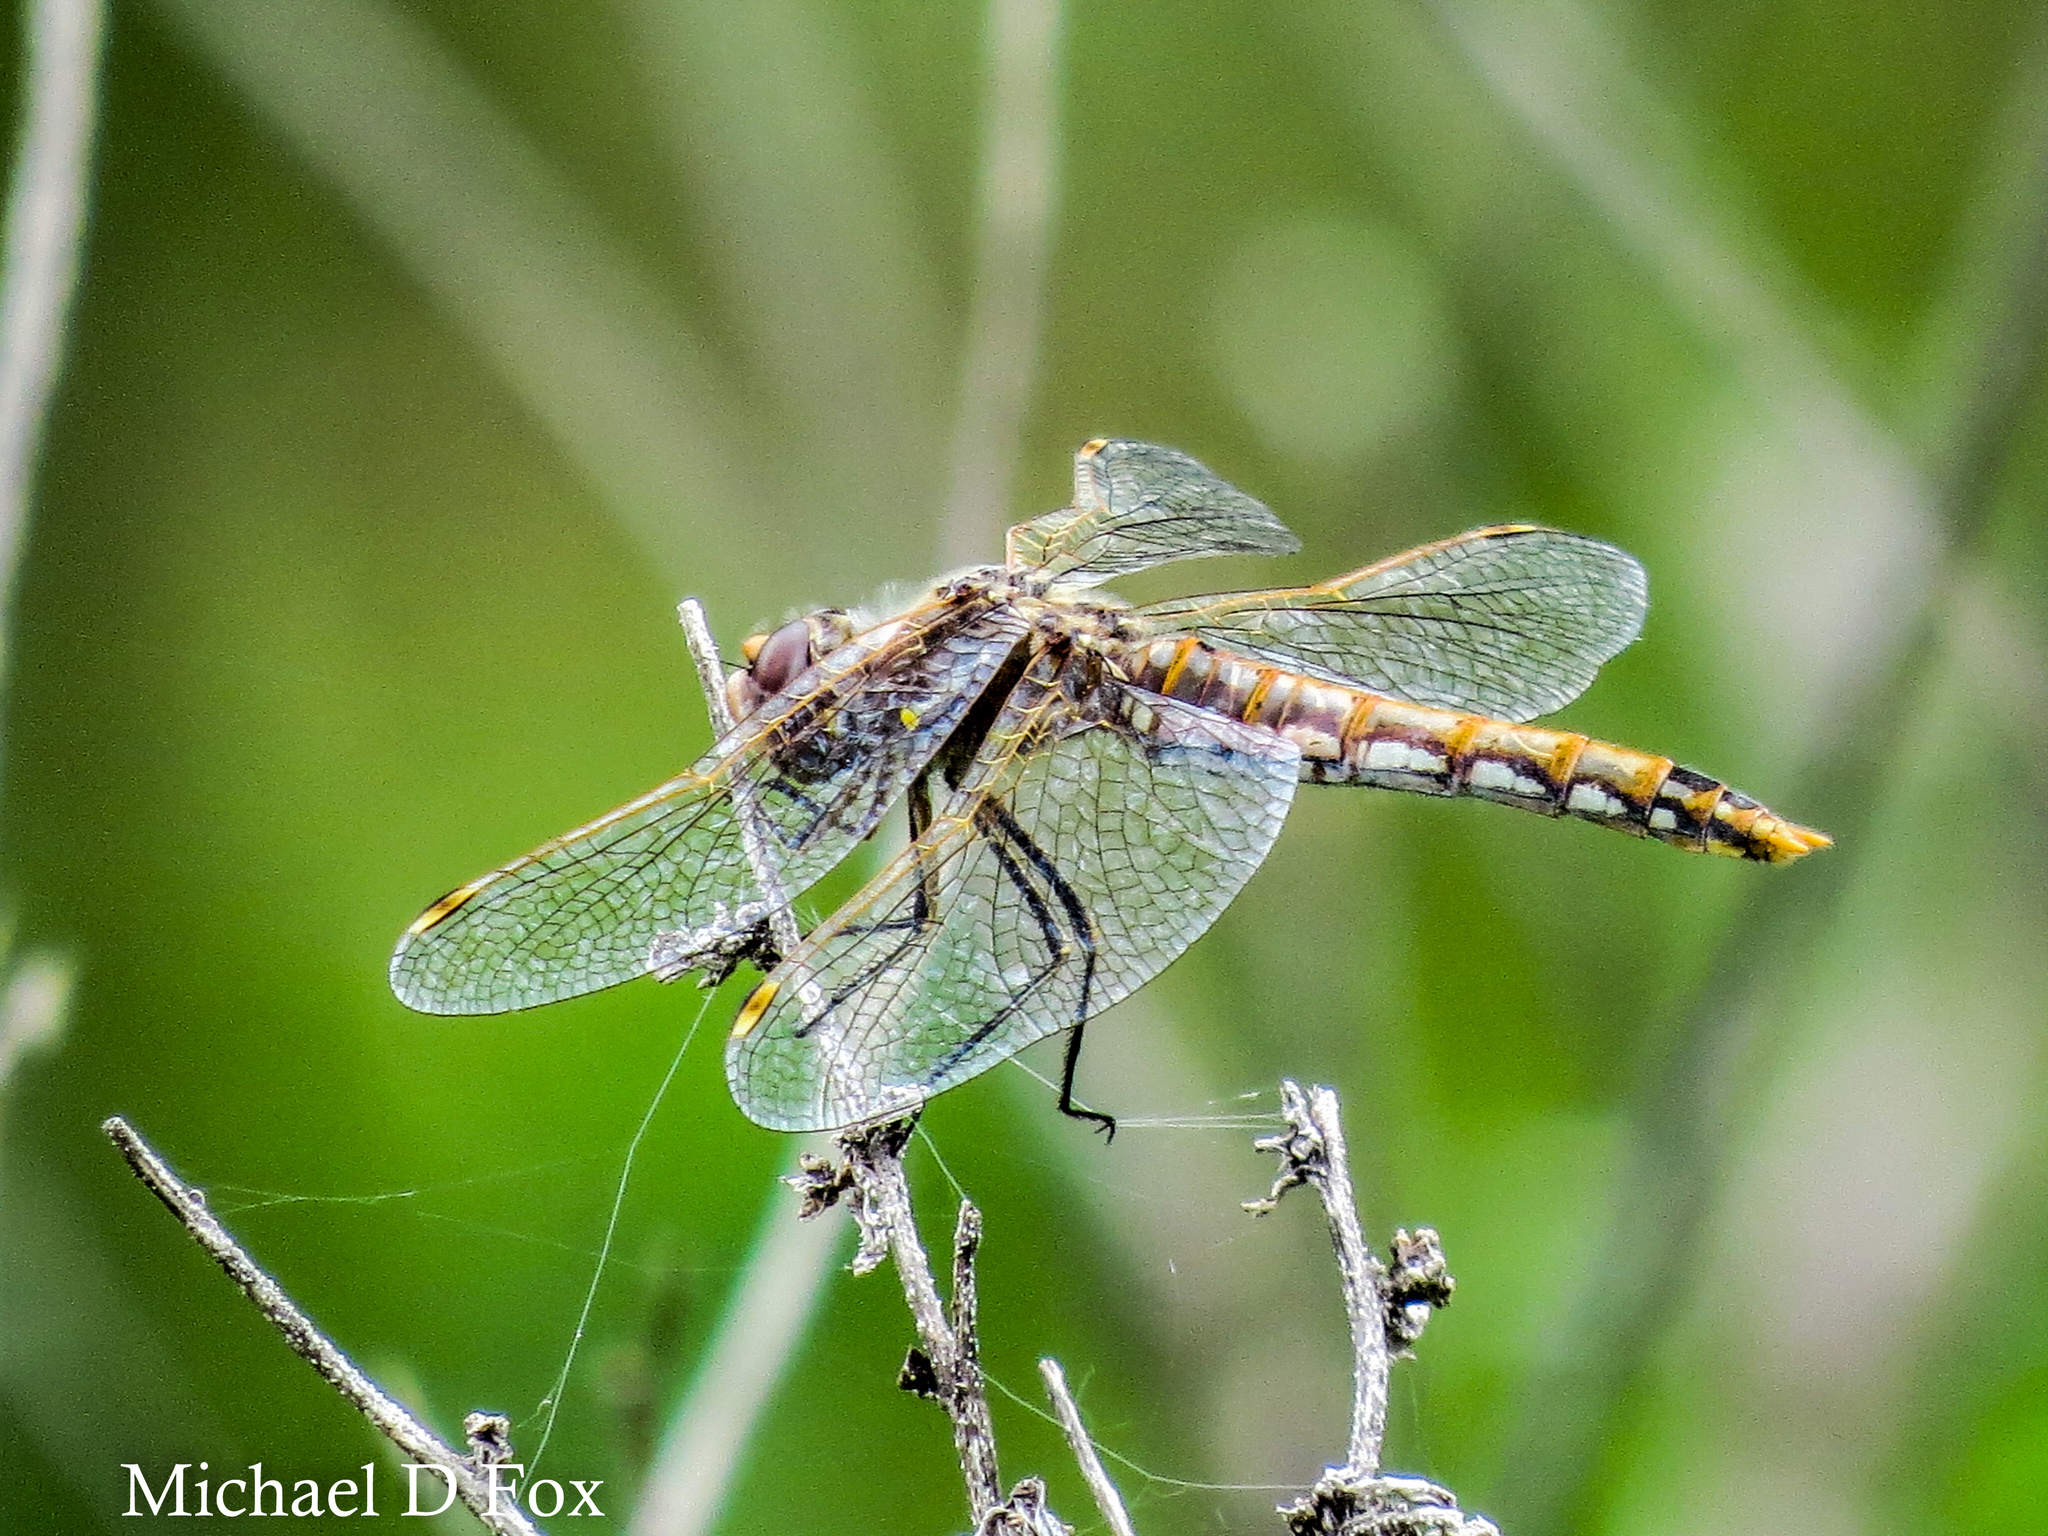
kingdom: Animalia
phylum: Arthropoda
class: Insecta
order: Odonata
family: Libellulidae
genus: Sympetrum
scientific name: Sympetrum corruptum
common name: Variegated meadowhawk
